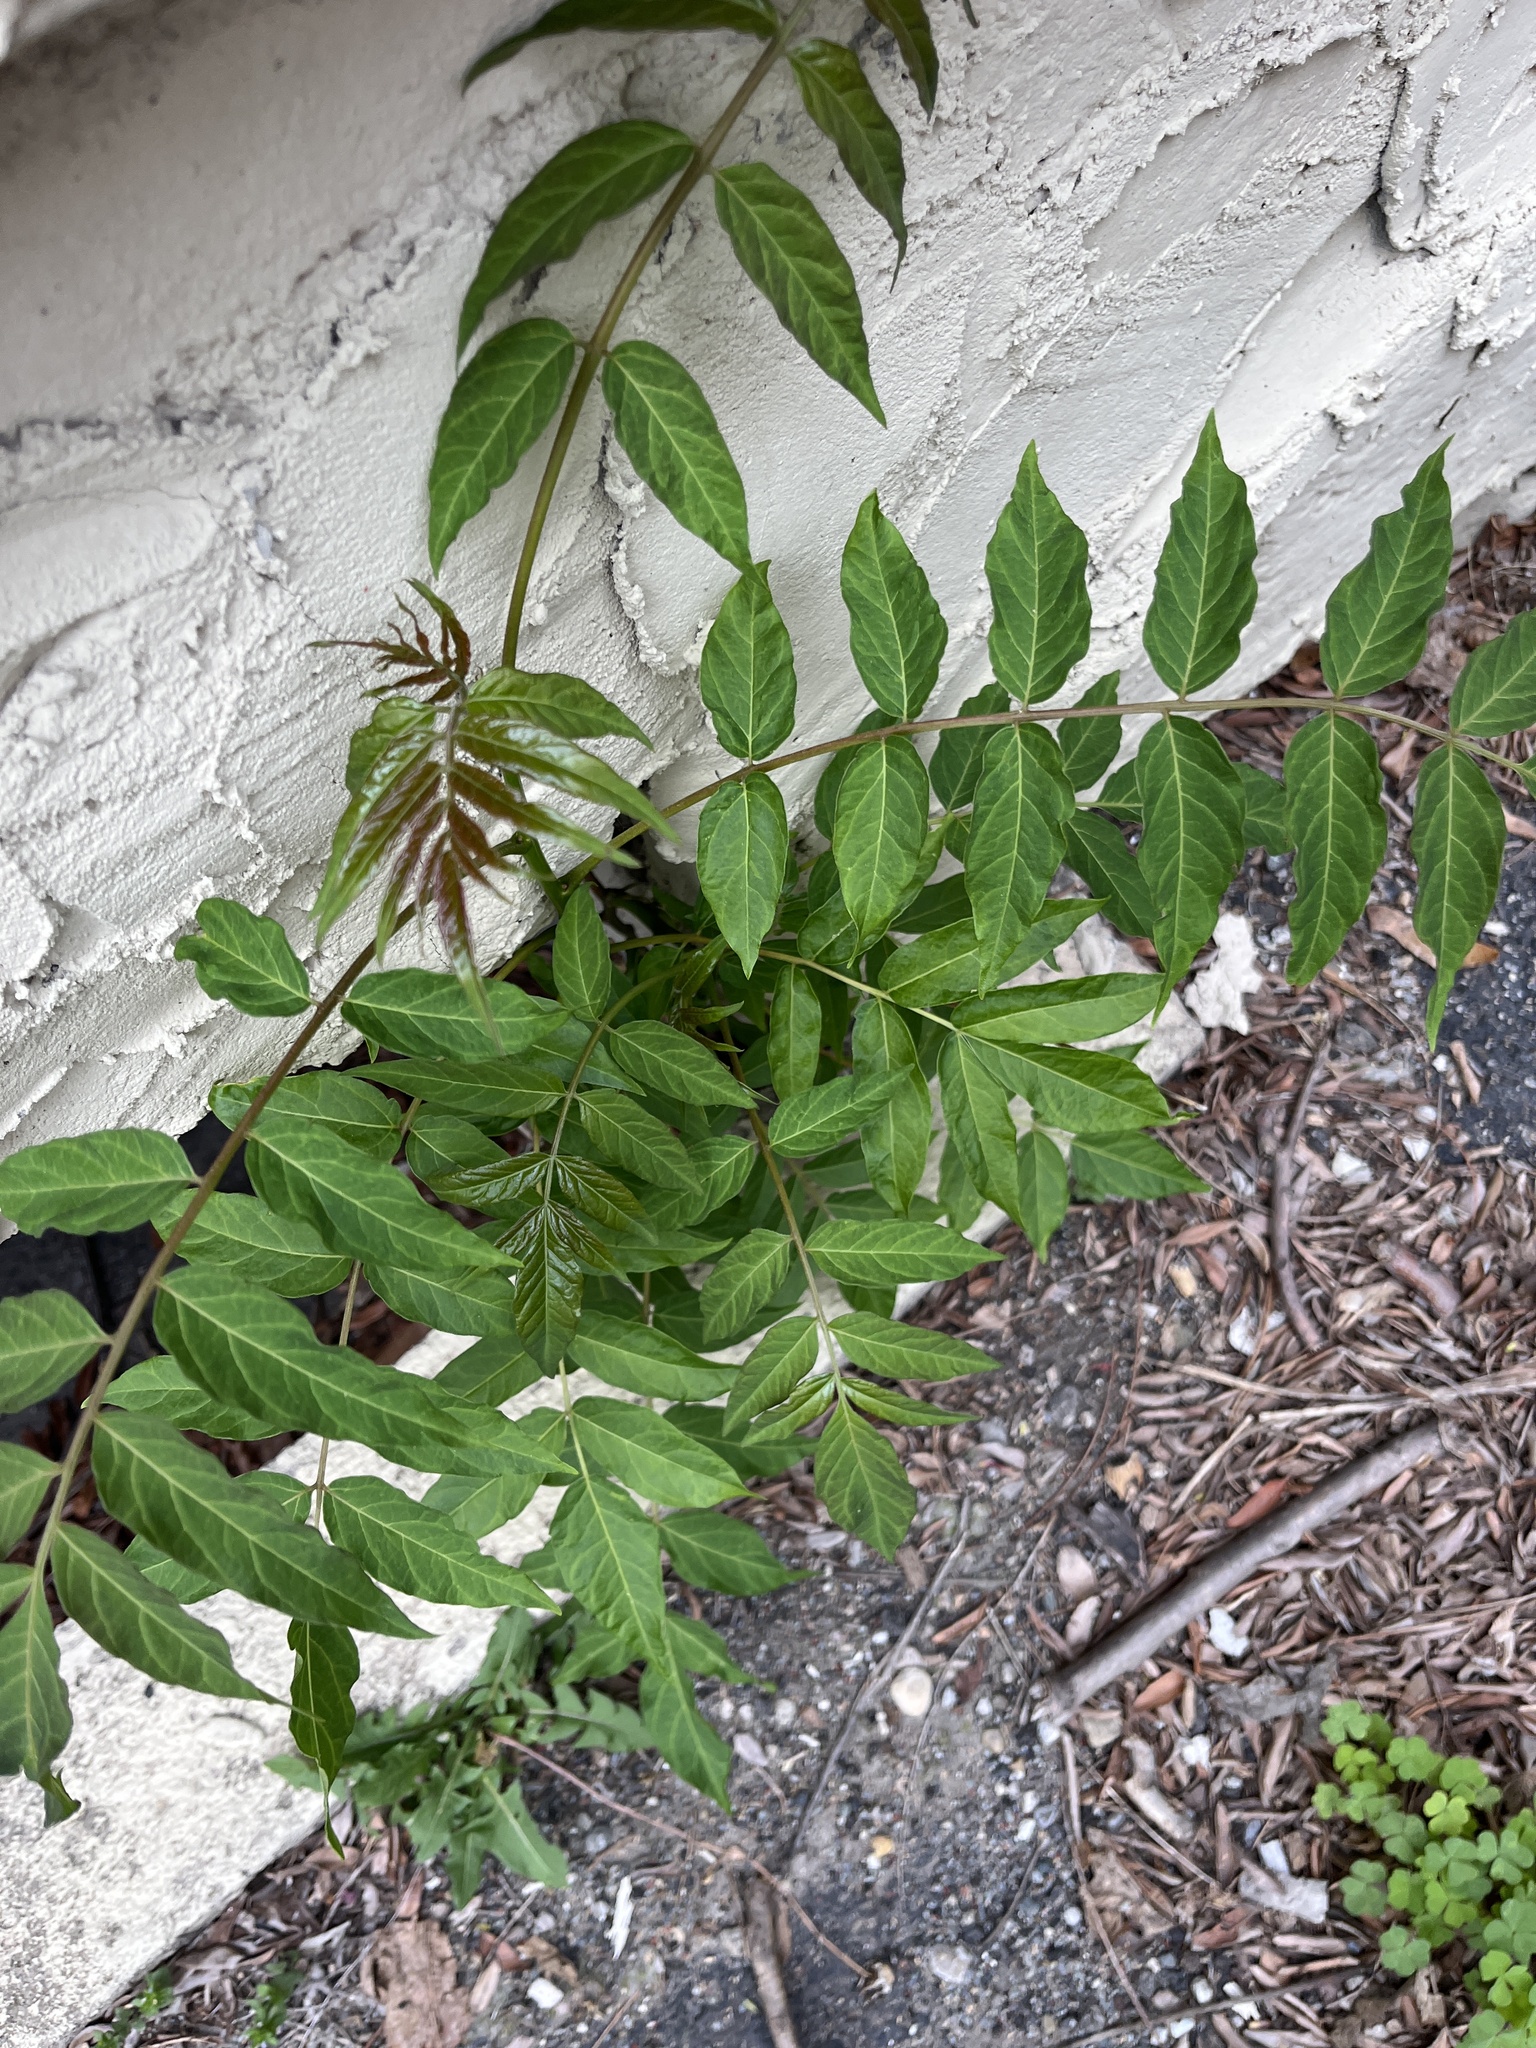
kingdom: Plantae
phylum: Tracheophyta
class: Magnoliopsida
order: Sapindales
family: Simaroubaceae
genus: Ailanthus
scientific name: Ailanthus altissima
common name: Tree-of-heaven
